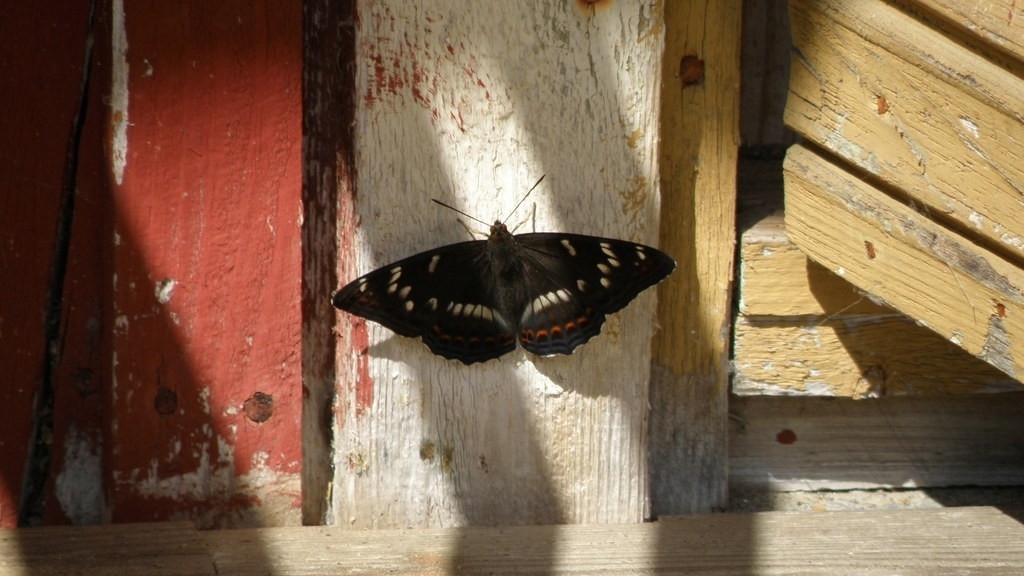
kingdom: Animalia
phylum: Arthropoda
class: Insecta
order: Lepidoptera
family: Nymphalidae
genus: Limenitis
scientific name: Limenitis populi
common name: Poplar admiral
